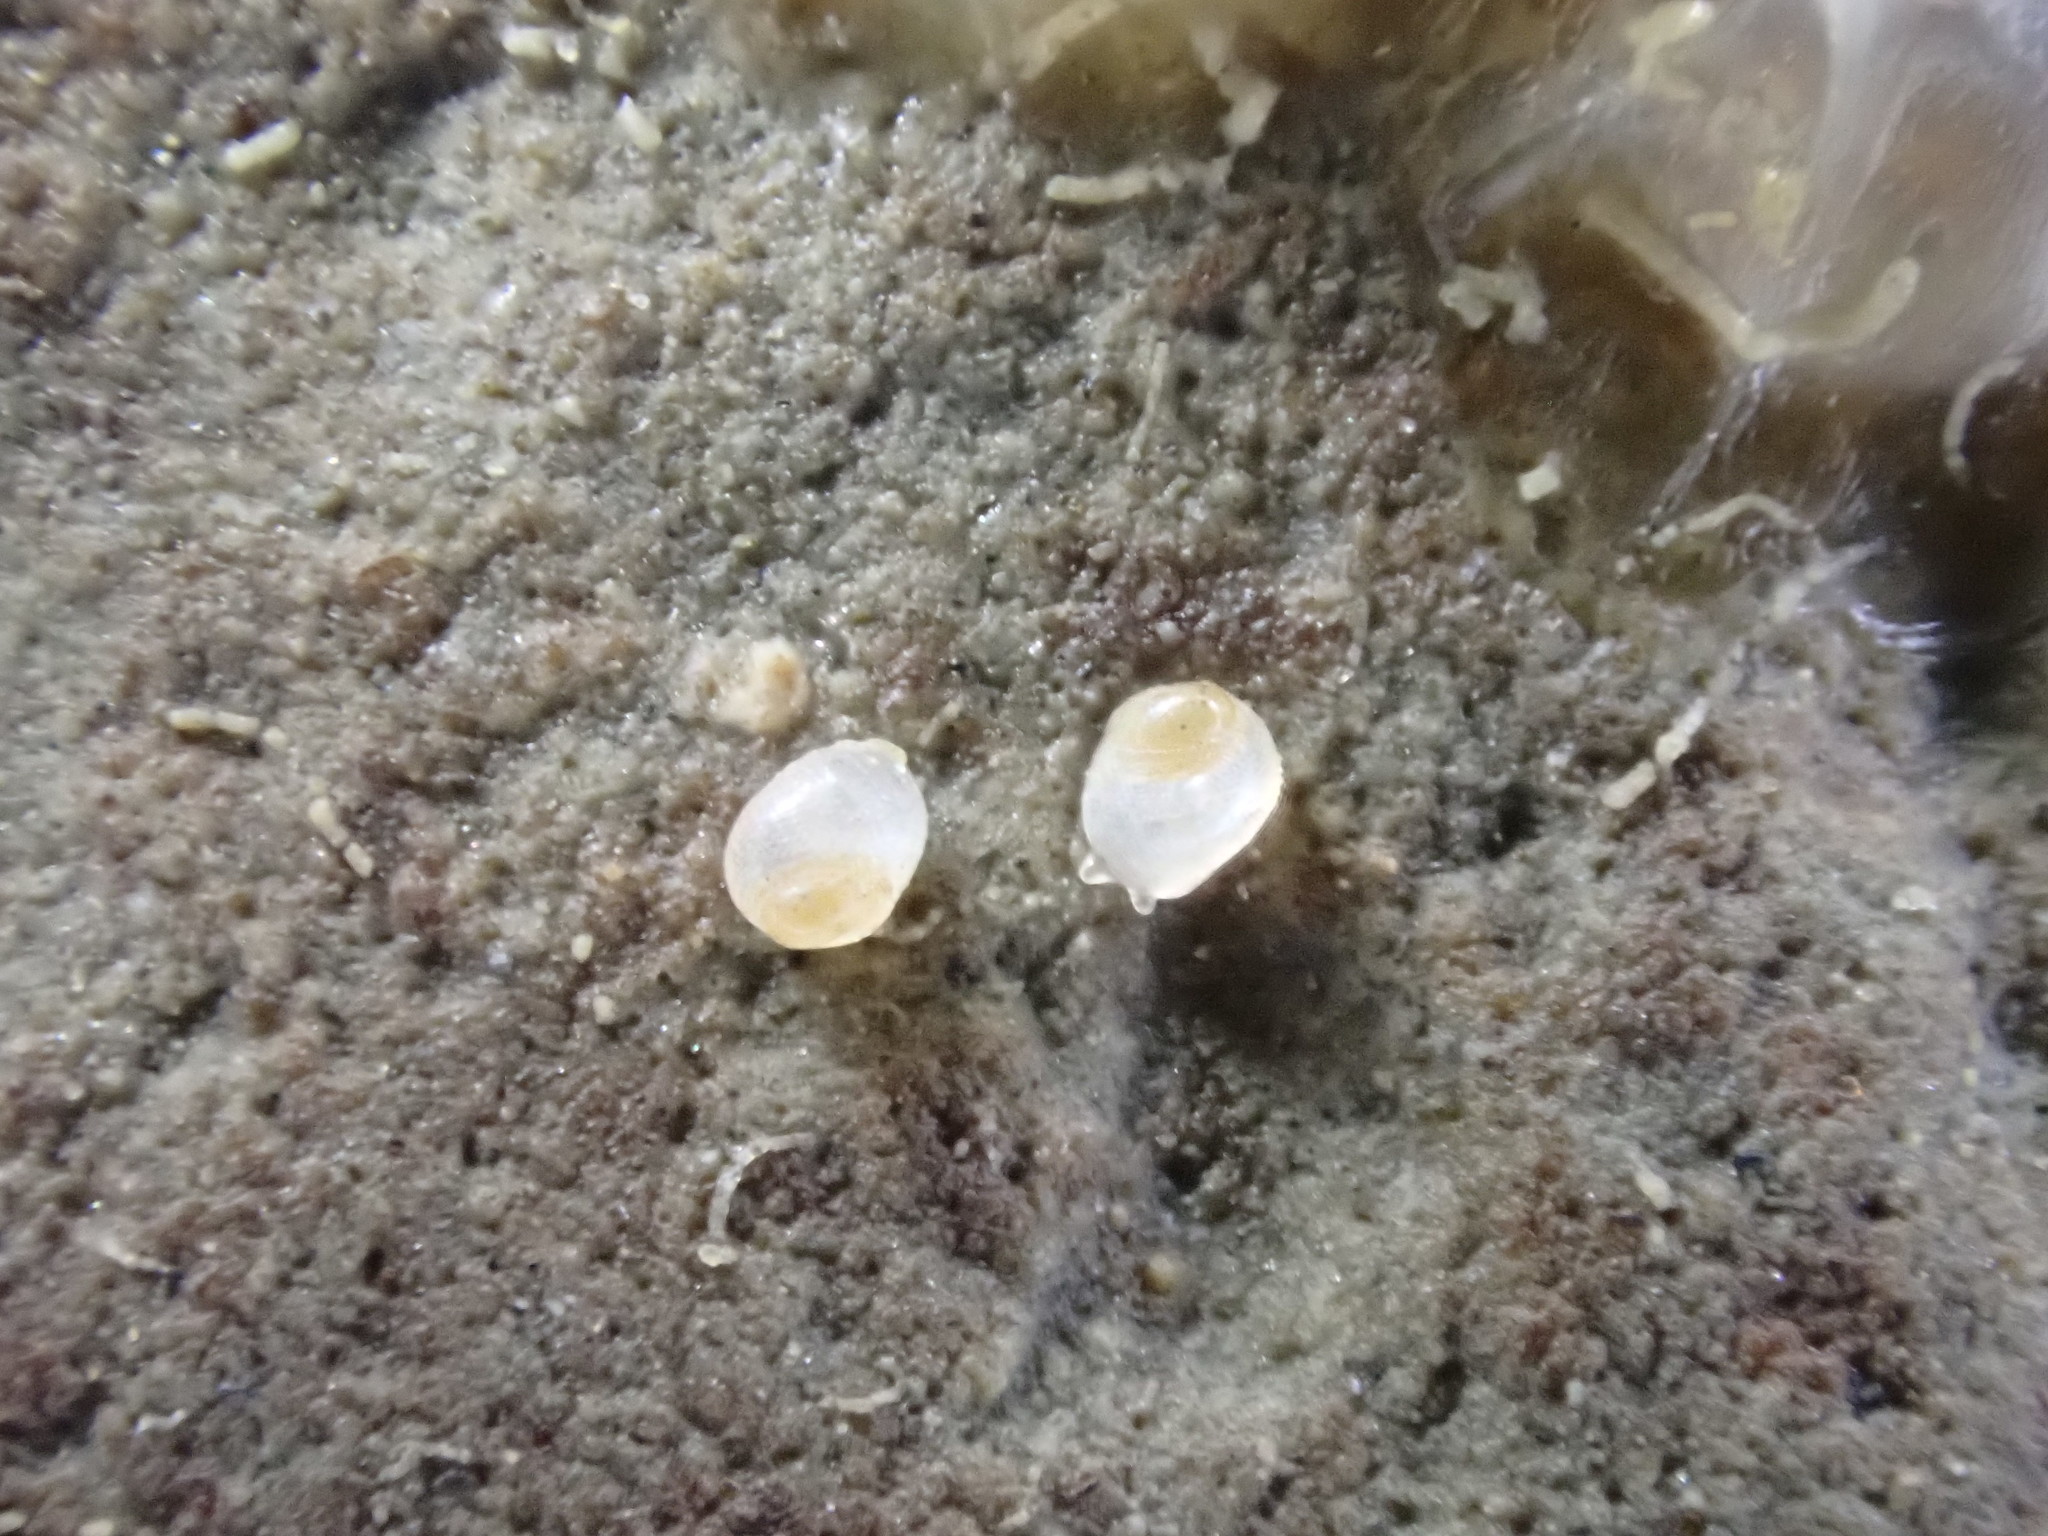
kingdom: Animalia
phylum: Mollusca
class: Gastropoda
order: Ellobiida
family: Ellobiidae
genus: Leuconopsis
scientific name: Leuconopsis obsoleta
